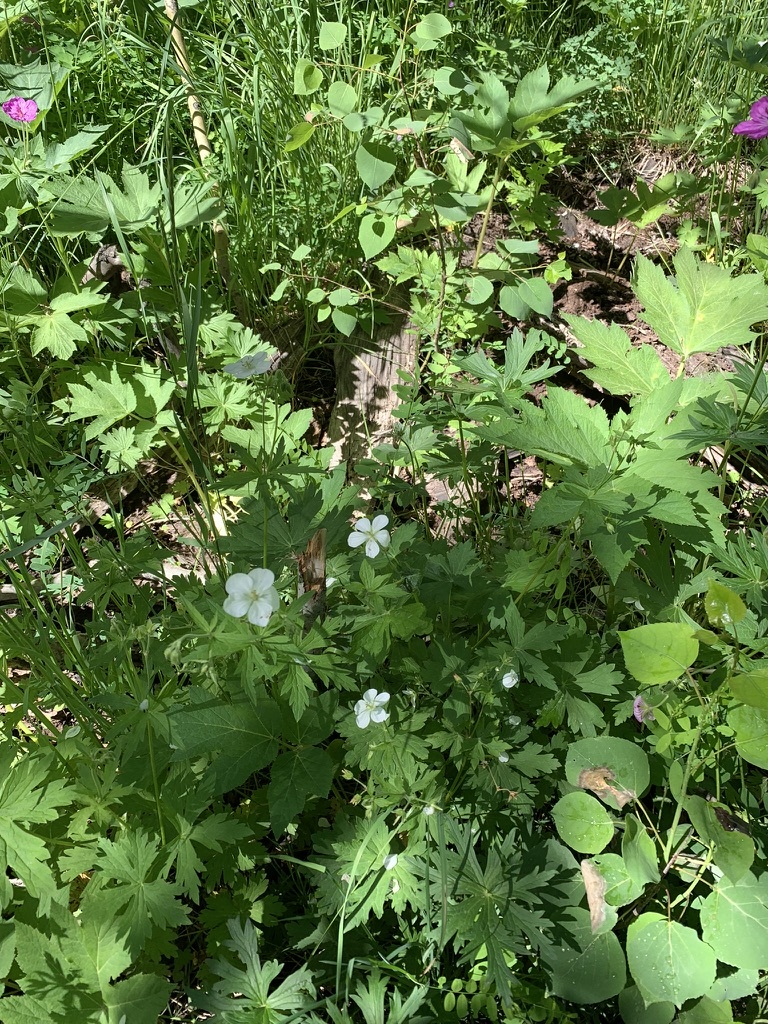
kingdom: Plantae
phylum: Tracheophyta
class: Magnoliopsida
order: Geraniales
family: Geraniaceae
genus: Geranium
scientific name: Geranium richardsonii
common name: Richardson's crane's-bill
